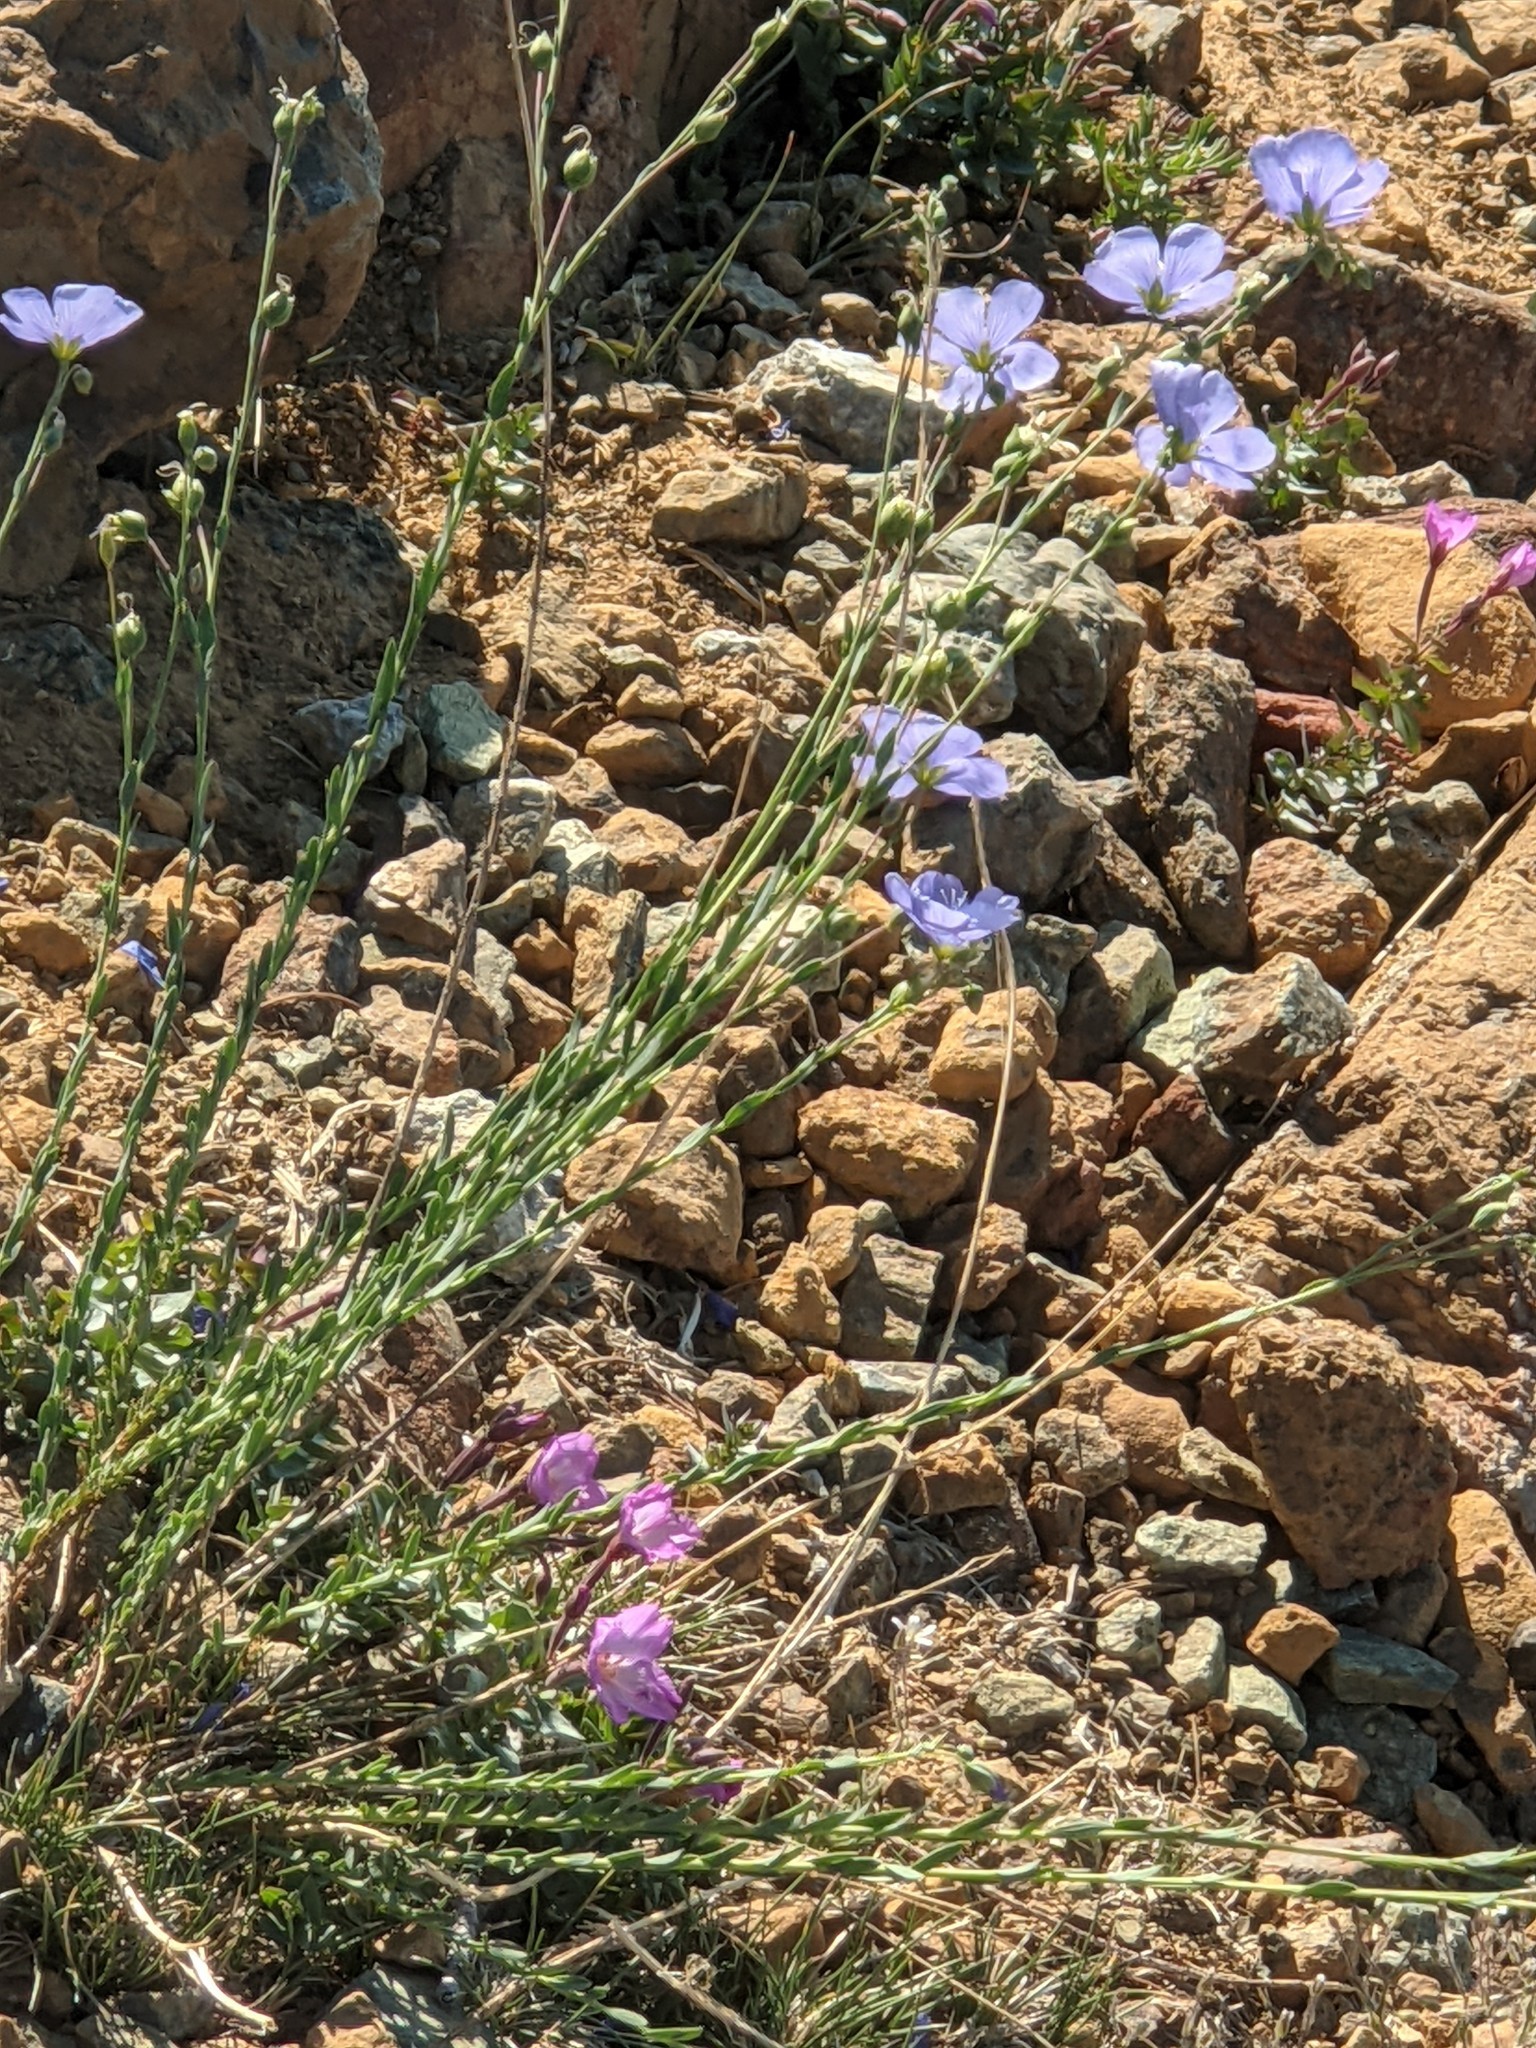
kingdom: Plantae
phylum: Tracheophyta
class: Magnoliopsida
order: Malpighiales
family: Linaceae
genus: Linum
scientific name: Linum lewisii
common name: Prairie flax
